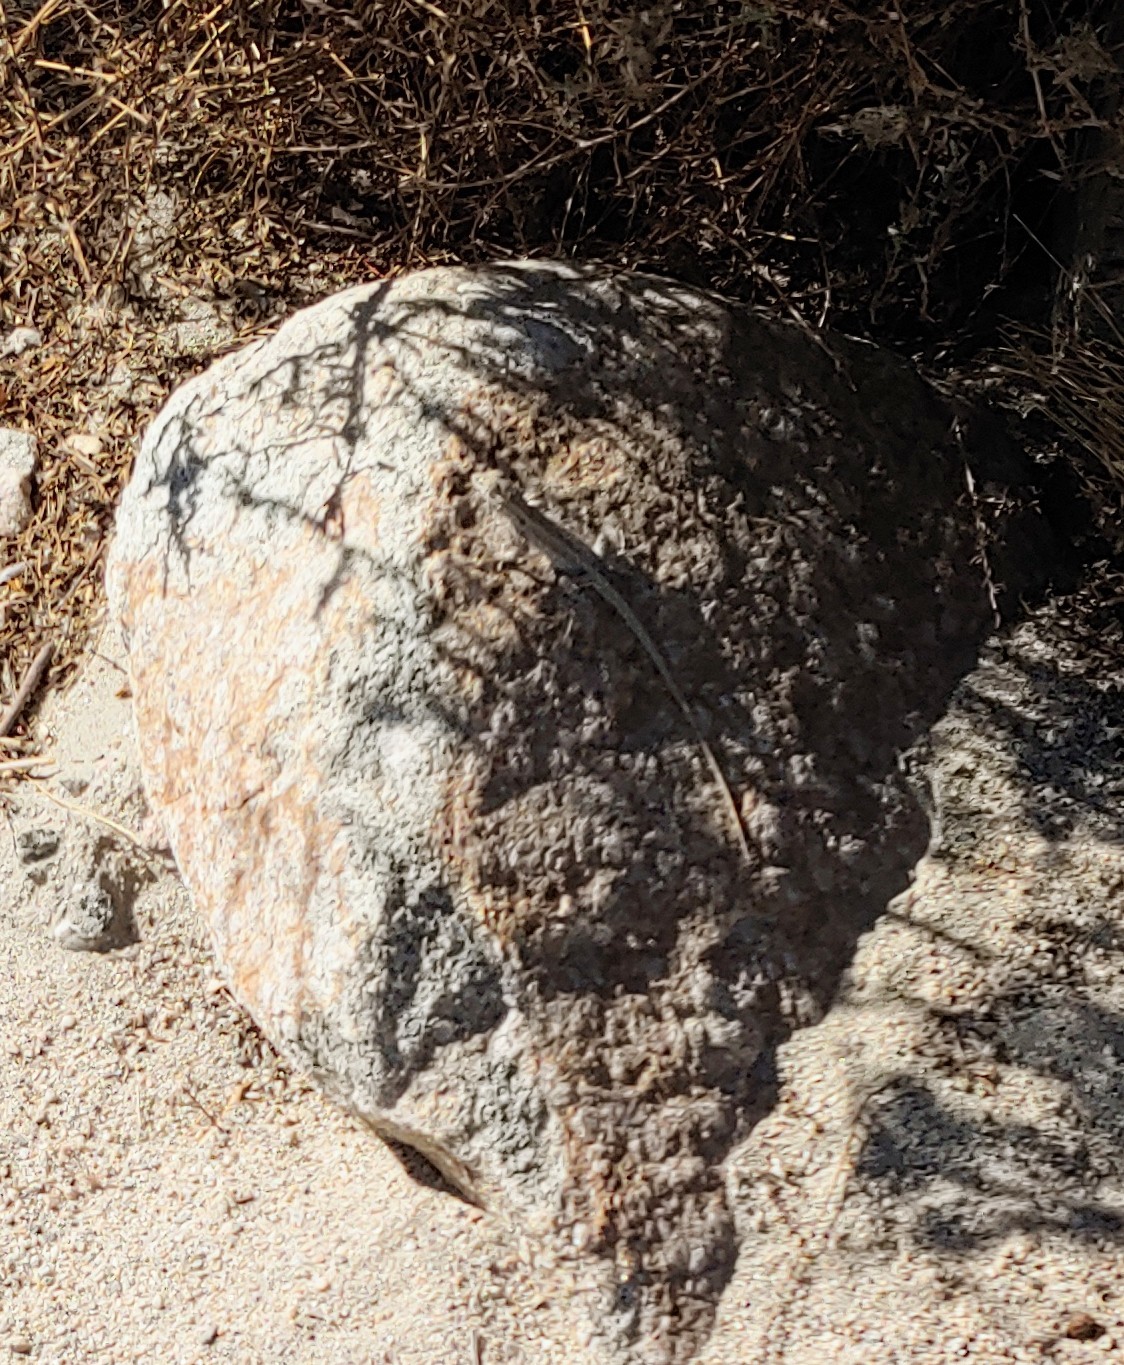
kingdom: Animalia
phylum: Chordata
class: Squamata
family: Phrynosomatidae
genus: Urosaurus
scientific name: Urosaurus graciosus
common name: Long-tailed brush lizard
